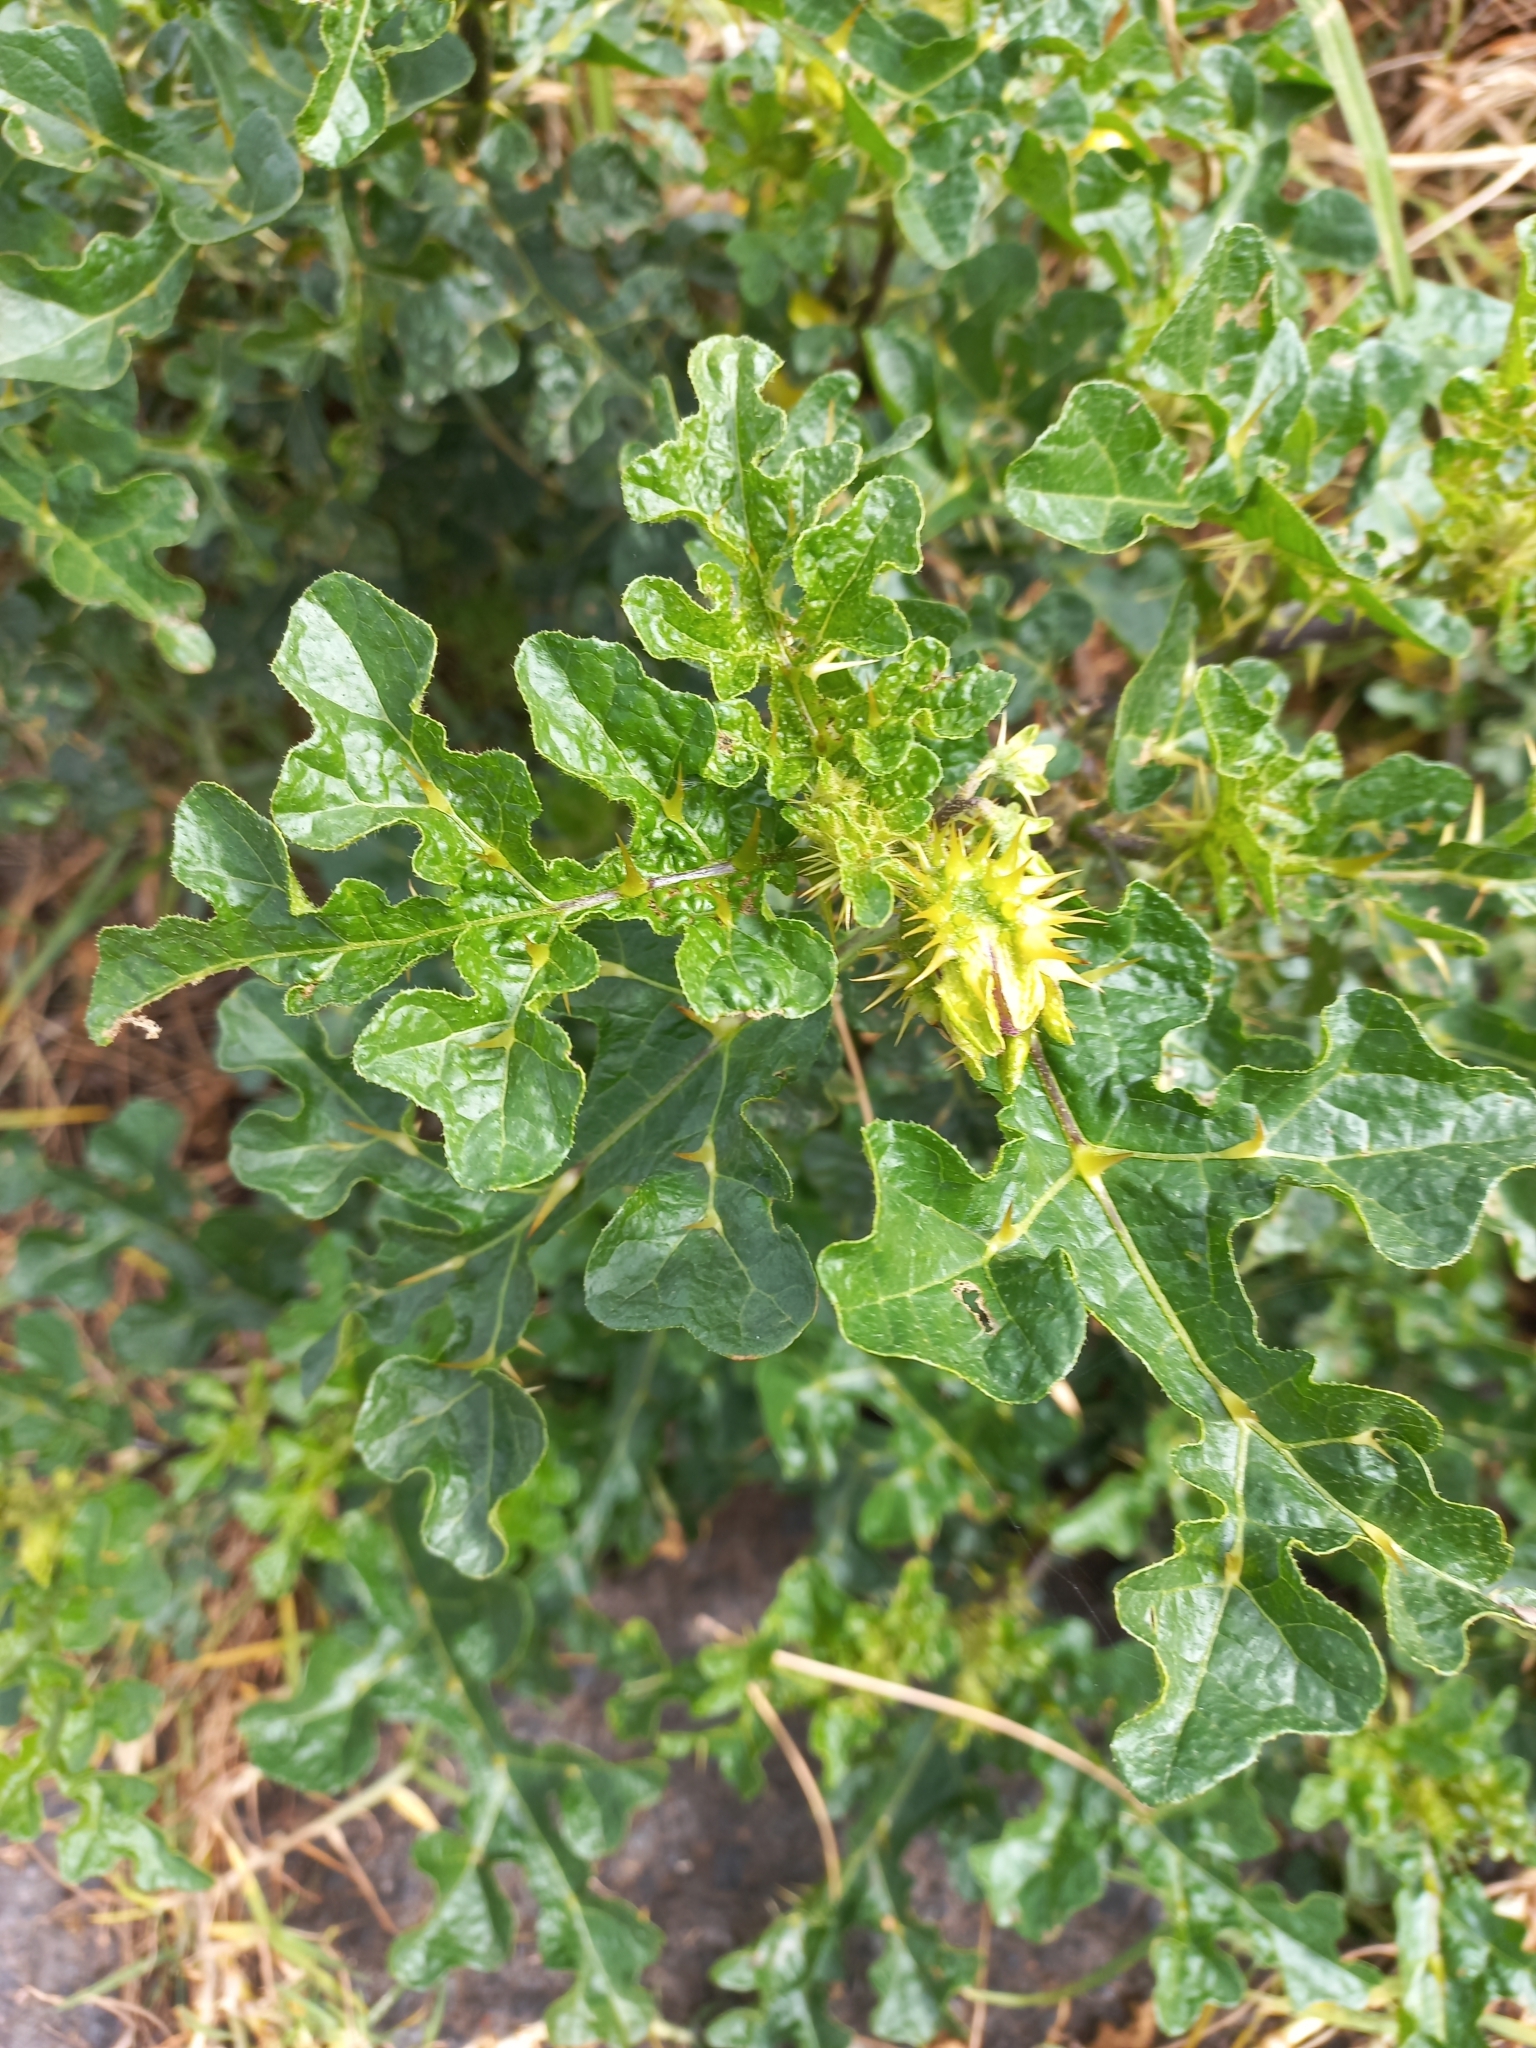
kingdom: Plantae
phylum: Tracheophyta
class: Magnoliopsida
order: Solanales
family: Solanaceae
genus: Solanum
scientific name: Solanum linnaeanum
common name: Nightshade
